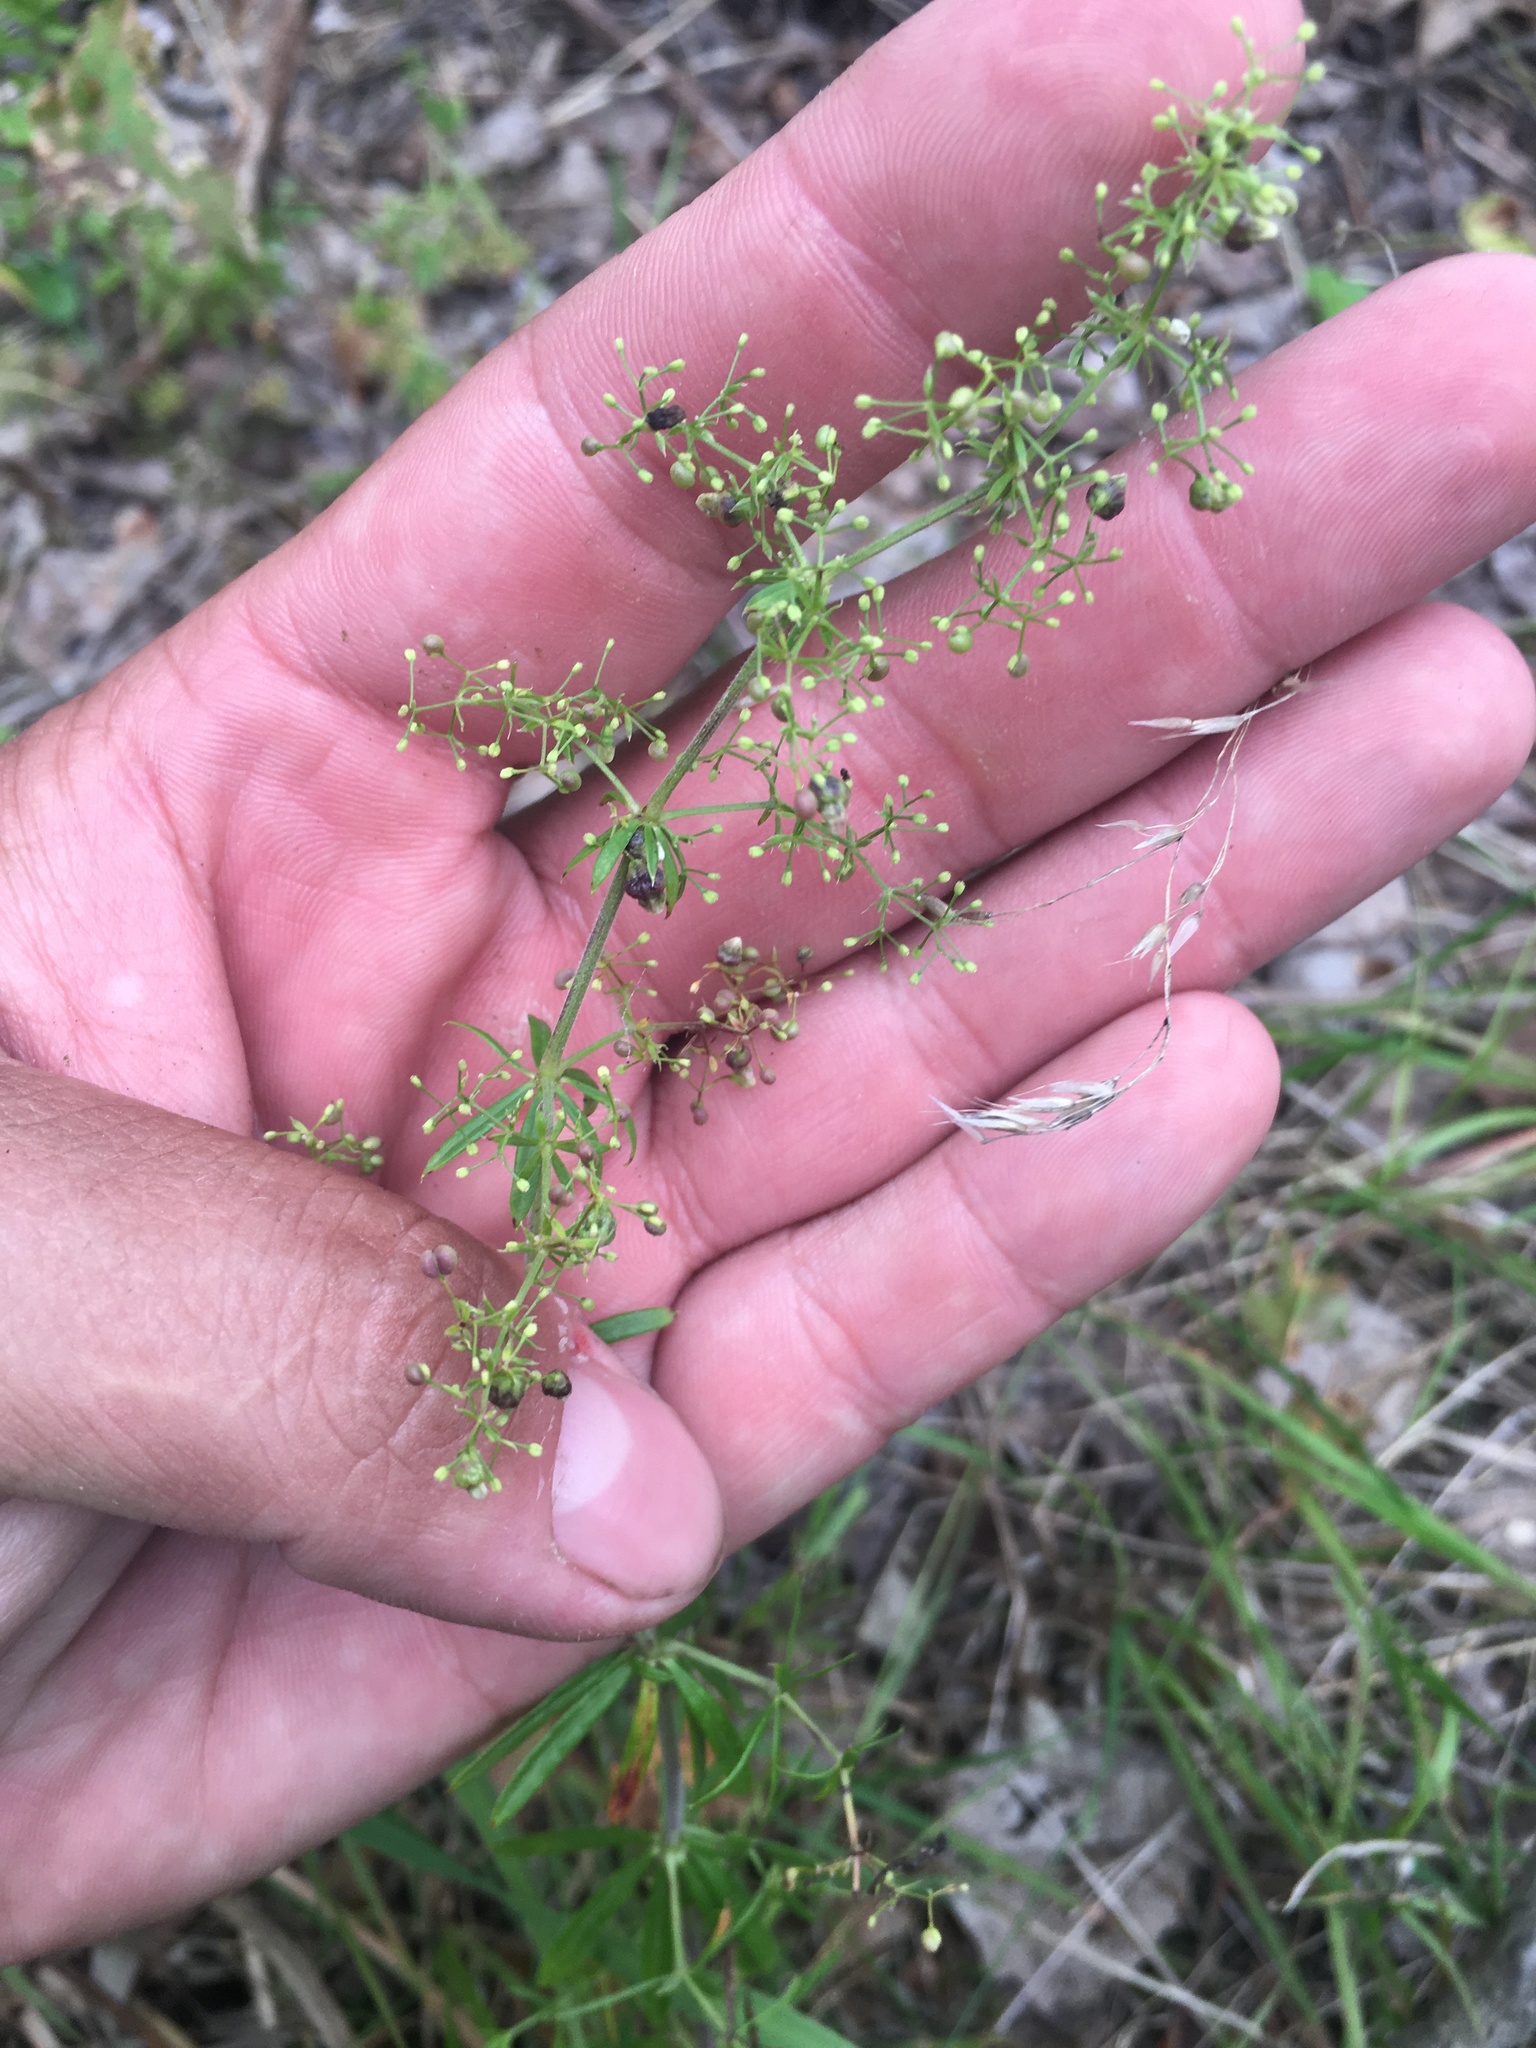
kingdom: Plantae
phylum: Tracheophyta
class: Magnoliopsida
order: Gentianales
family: Rubiaceae
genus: Galium
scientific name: Galium mollugo
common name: Hedge bedstraw
